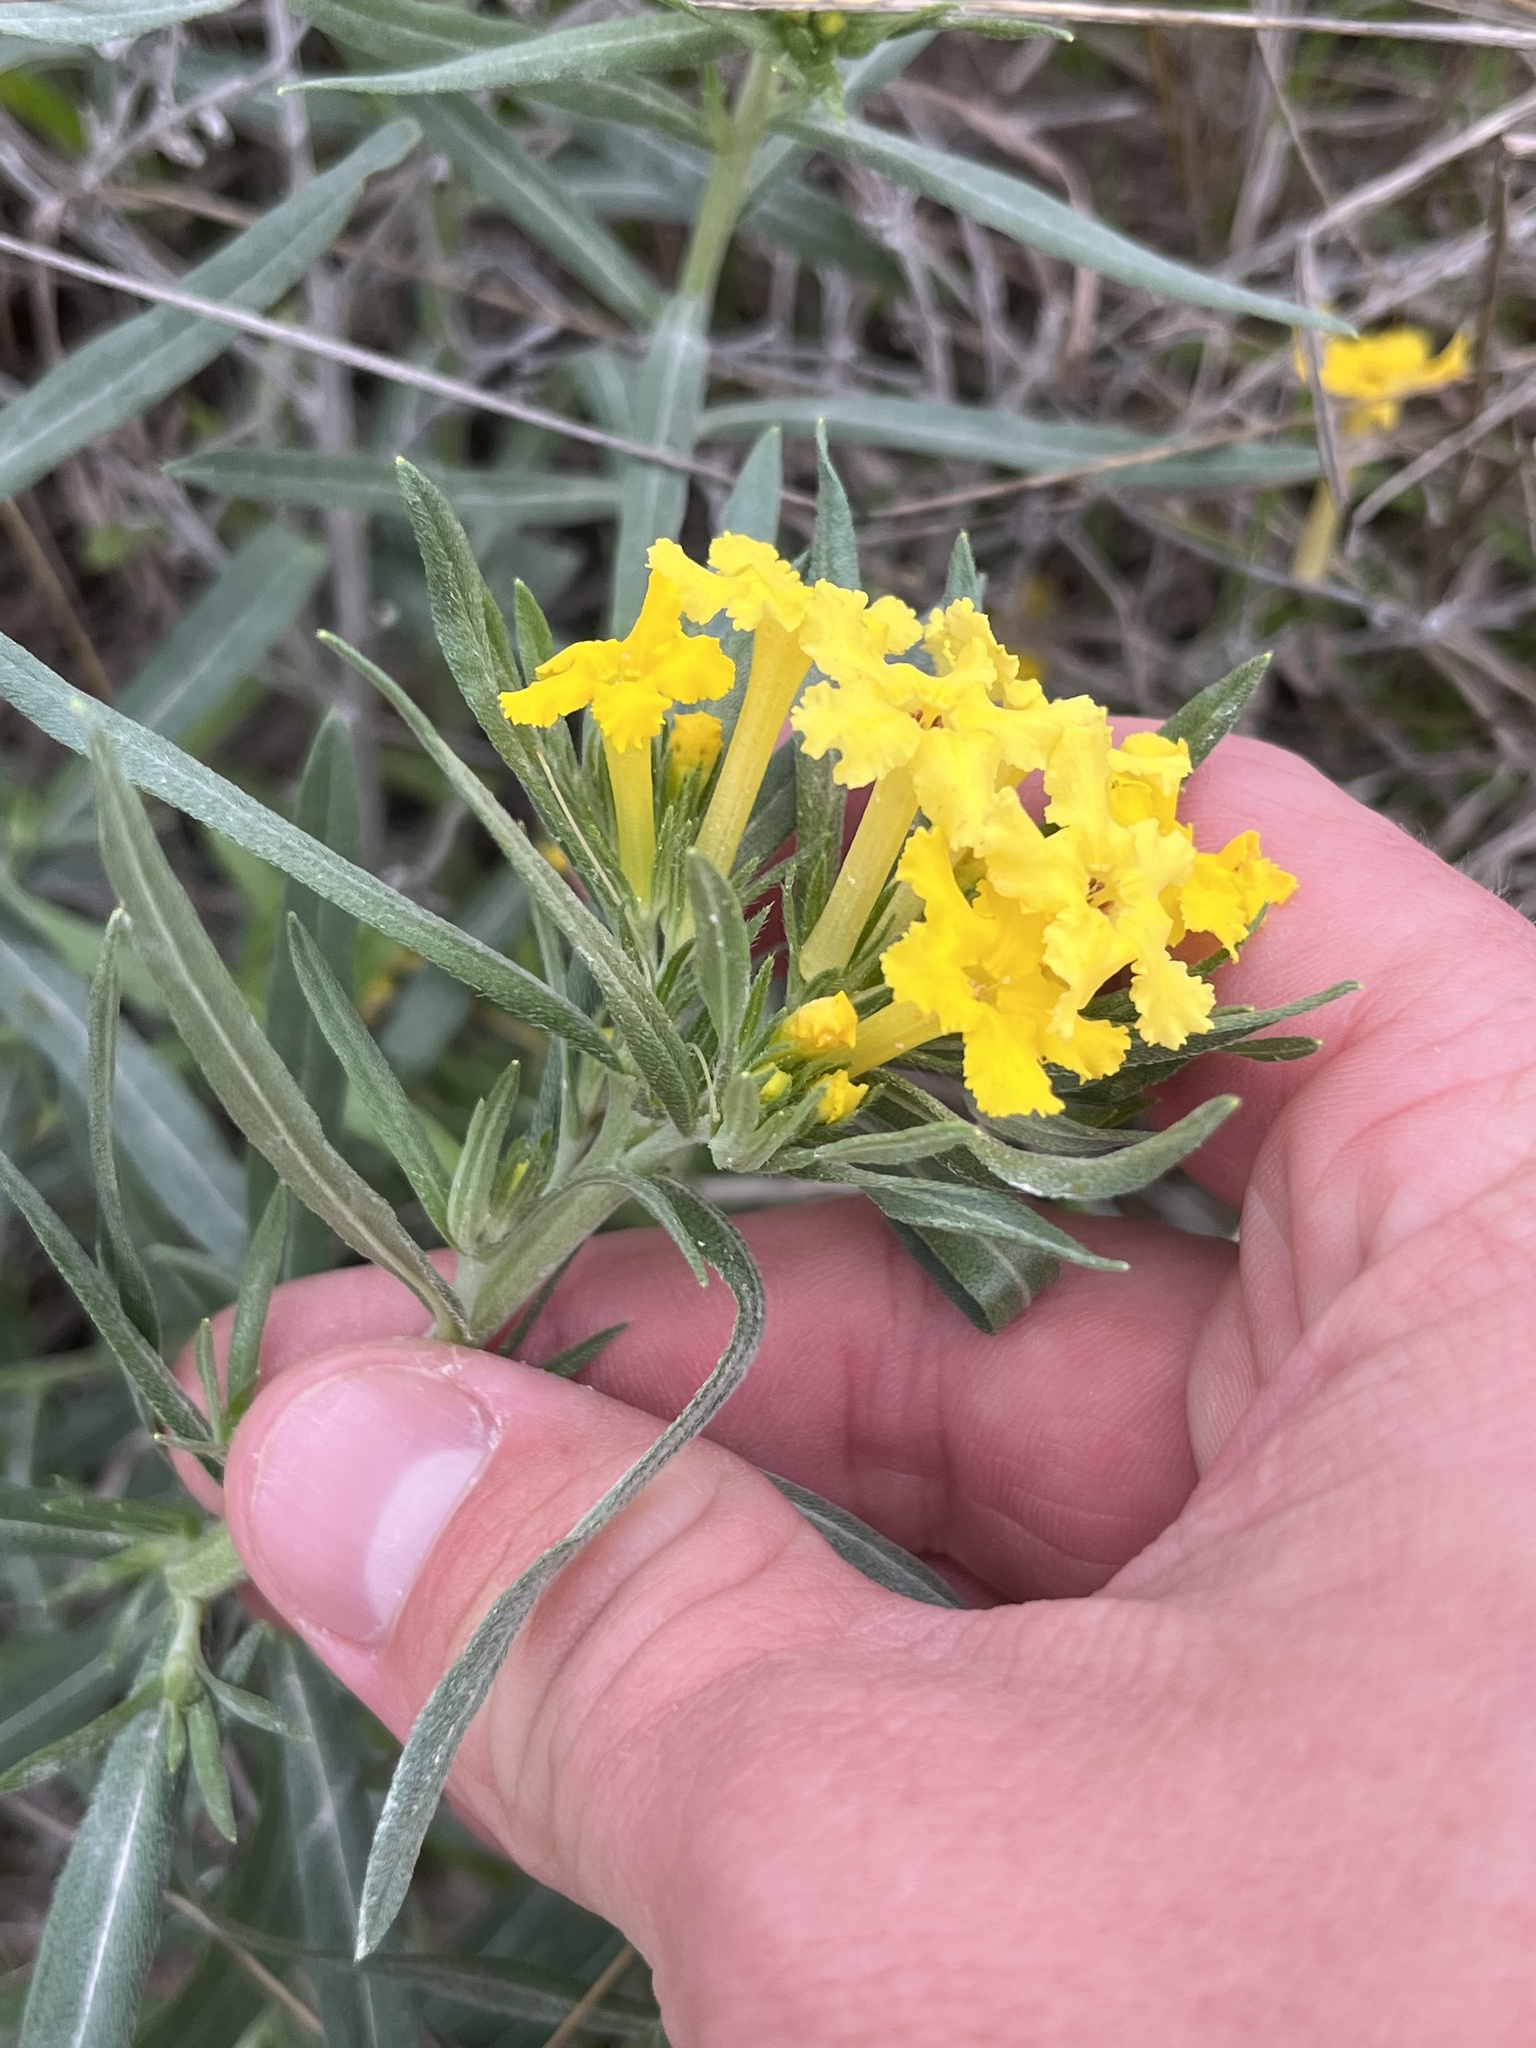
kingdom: Plantae
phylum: Tracheophyta
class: Magnoliopsida
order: Boraginales
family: Boraginaceae
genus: Lithospermum
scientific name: Lithospermum incisum
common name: Fringed gromwell
